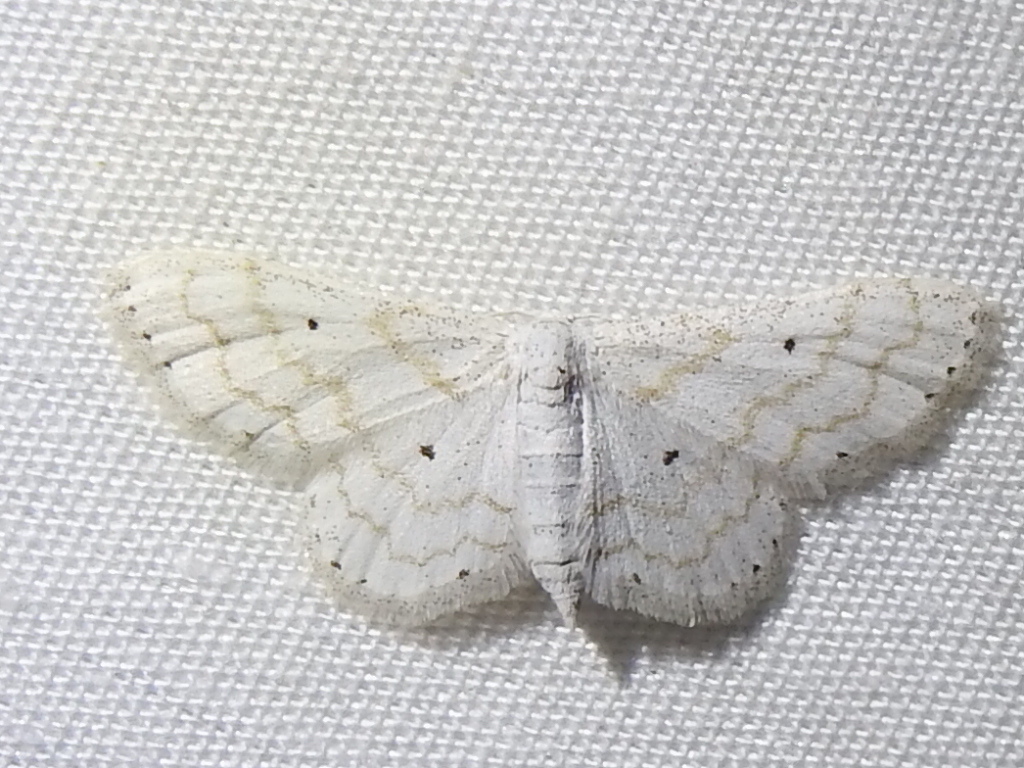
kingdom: Animalia
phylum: Arthropoda
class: Insecta
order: Lepidoptera
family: Geometridae
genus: Lobocleta
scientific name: Lobocleta peralbata
